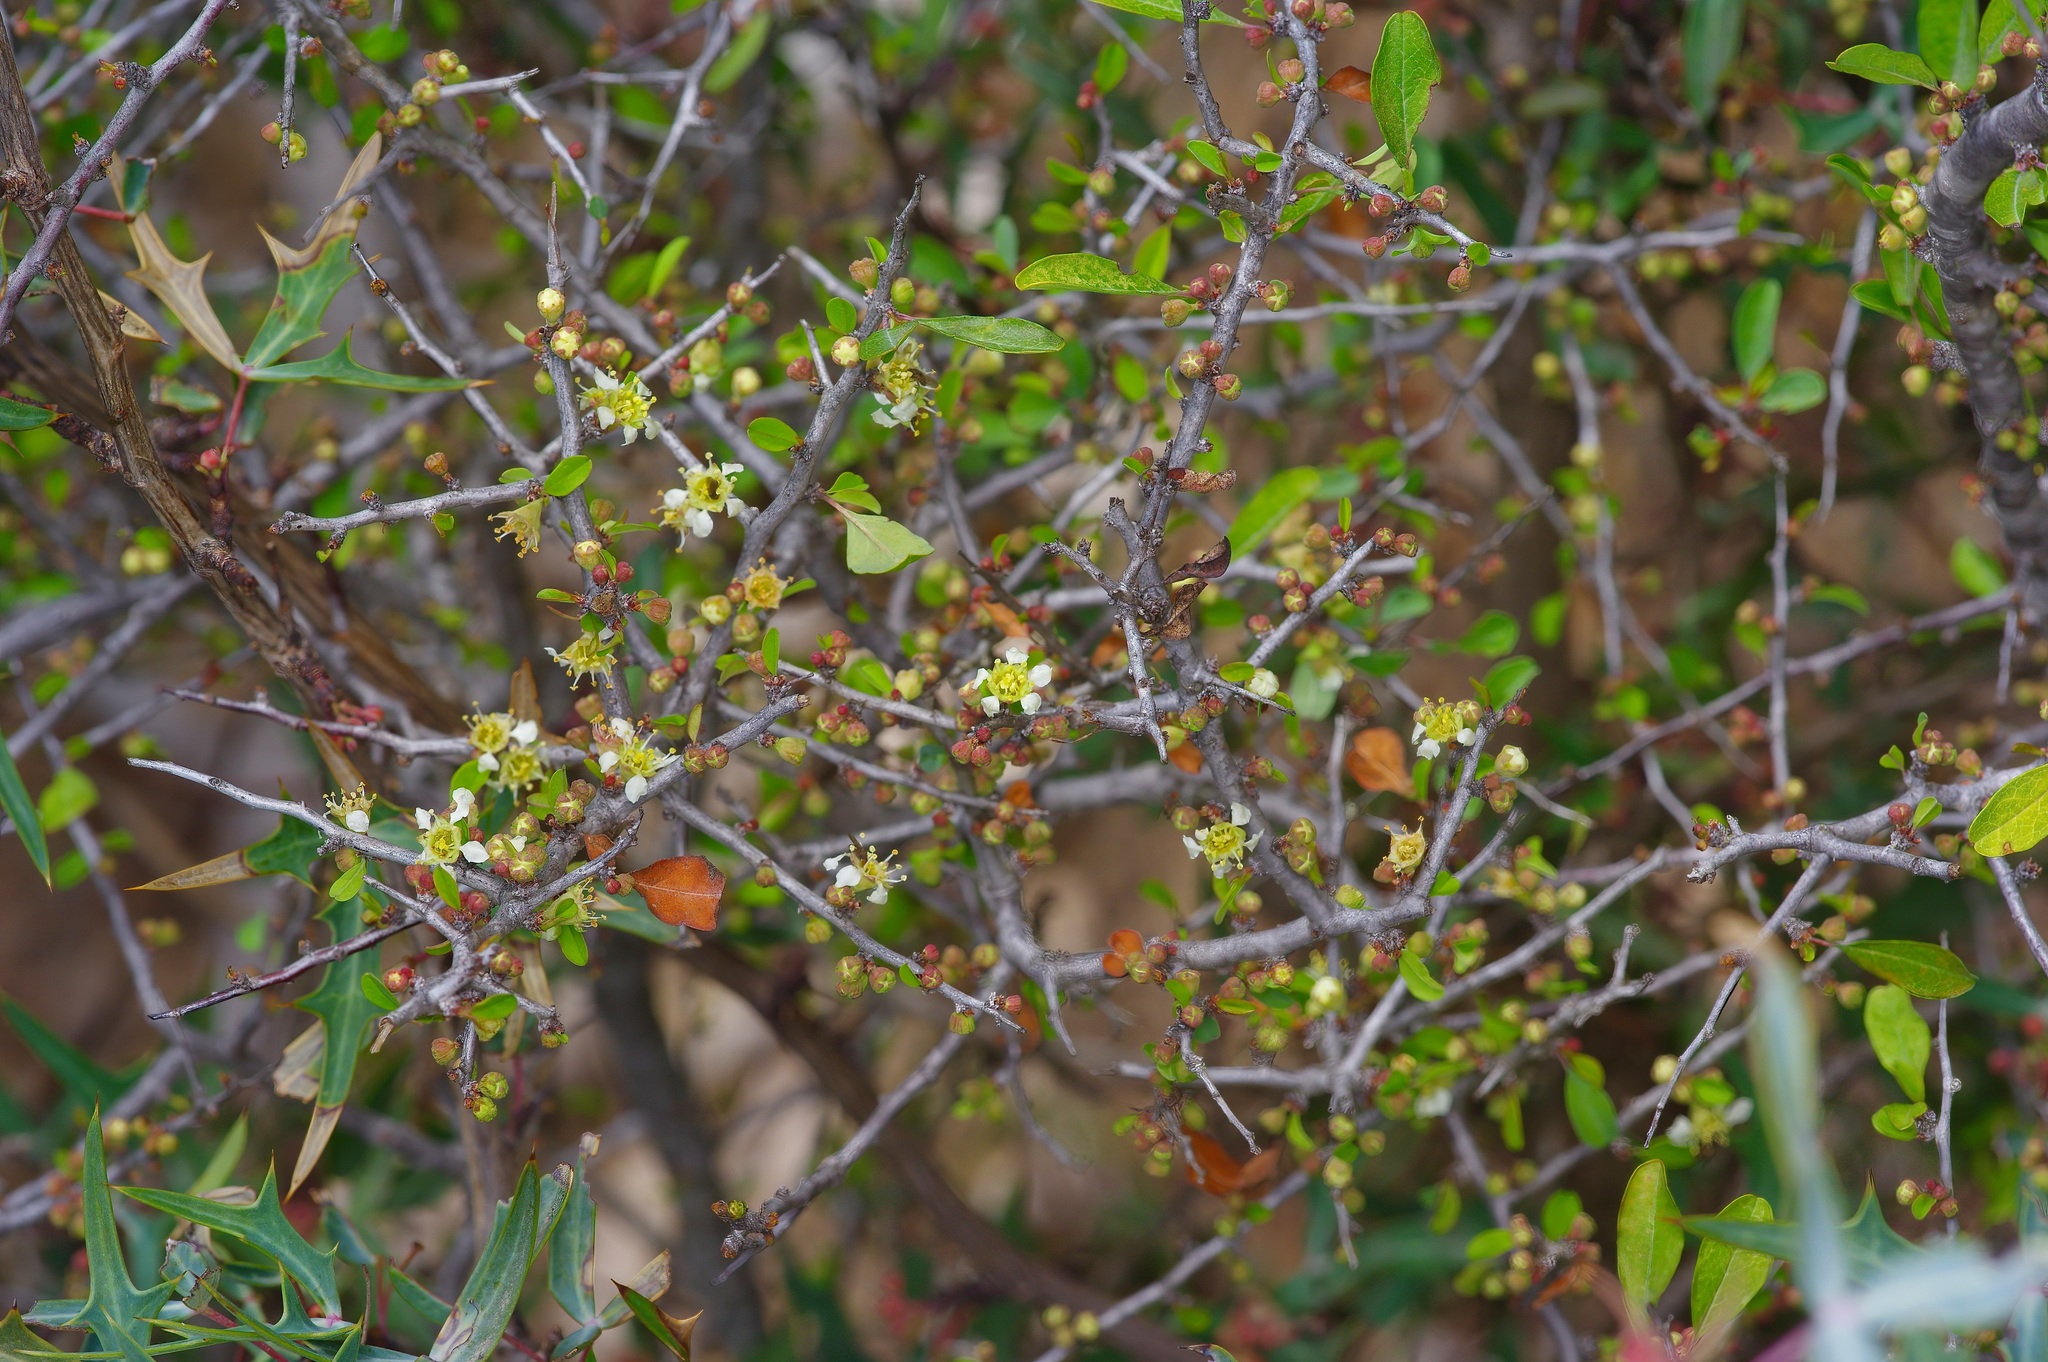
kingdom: Plantae
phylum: Tracheophyta
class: Magnoliopsida
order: Rosales
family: Rosaceae
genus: Prunus
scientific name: Prunus minutiflora
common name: Texas almond
